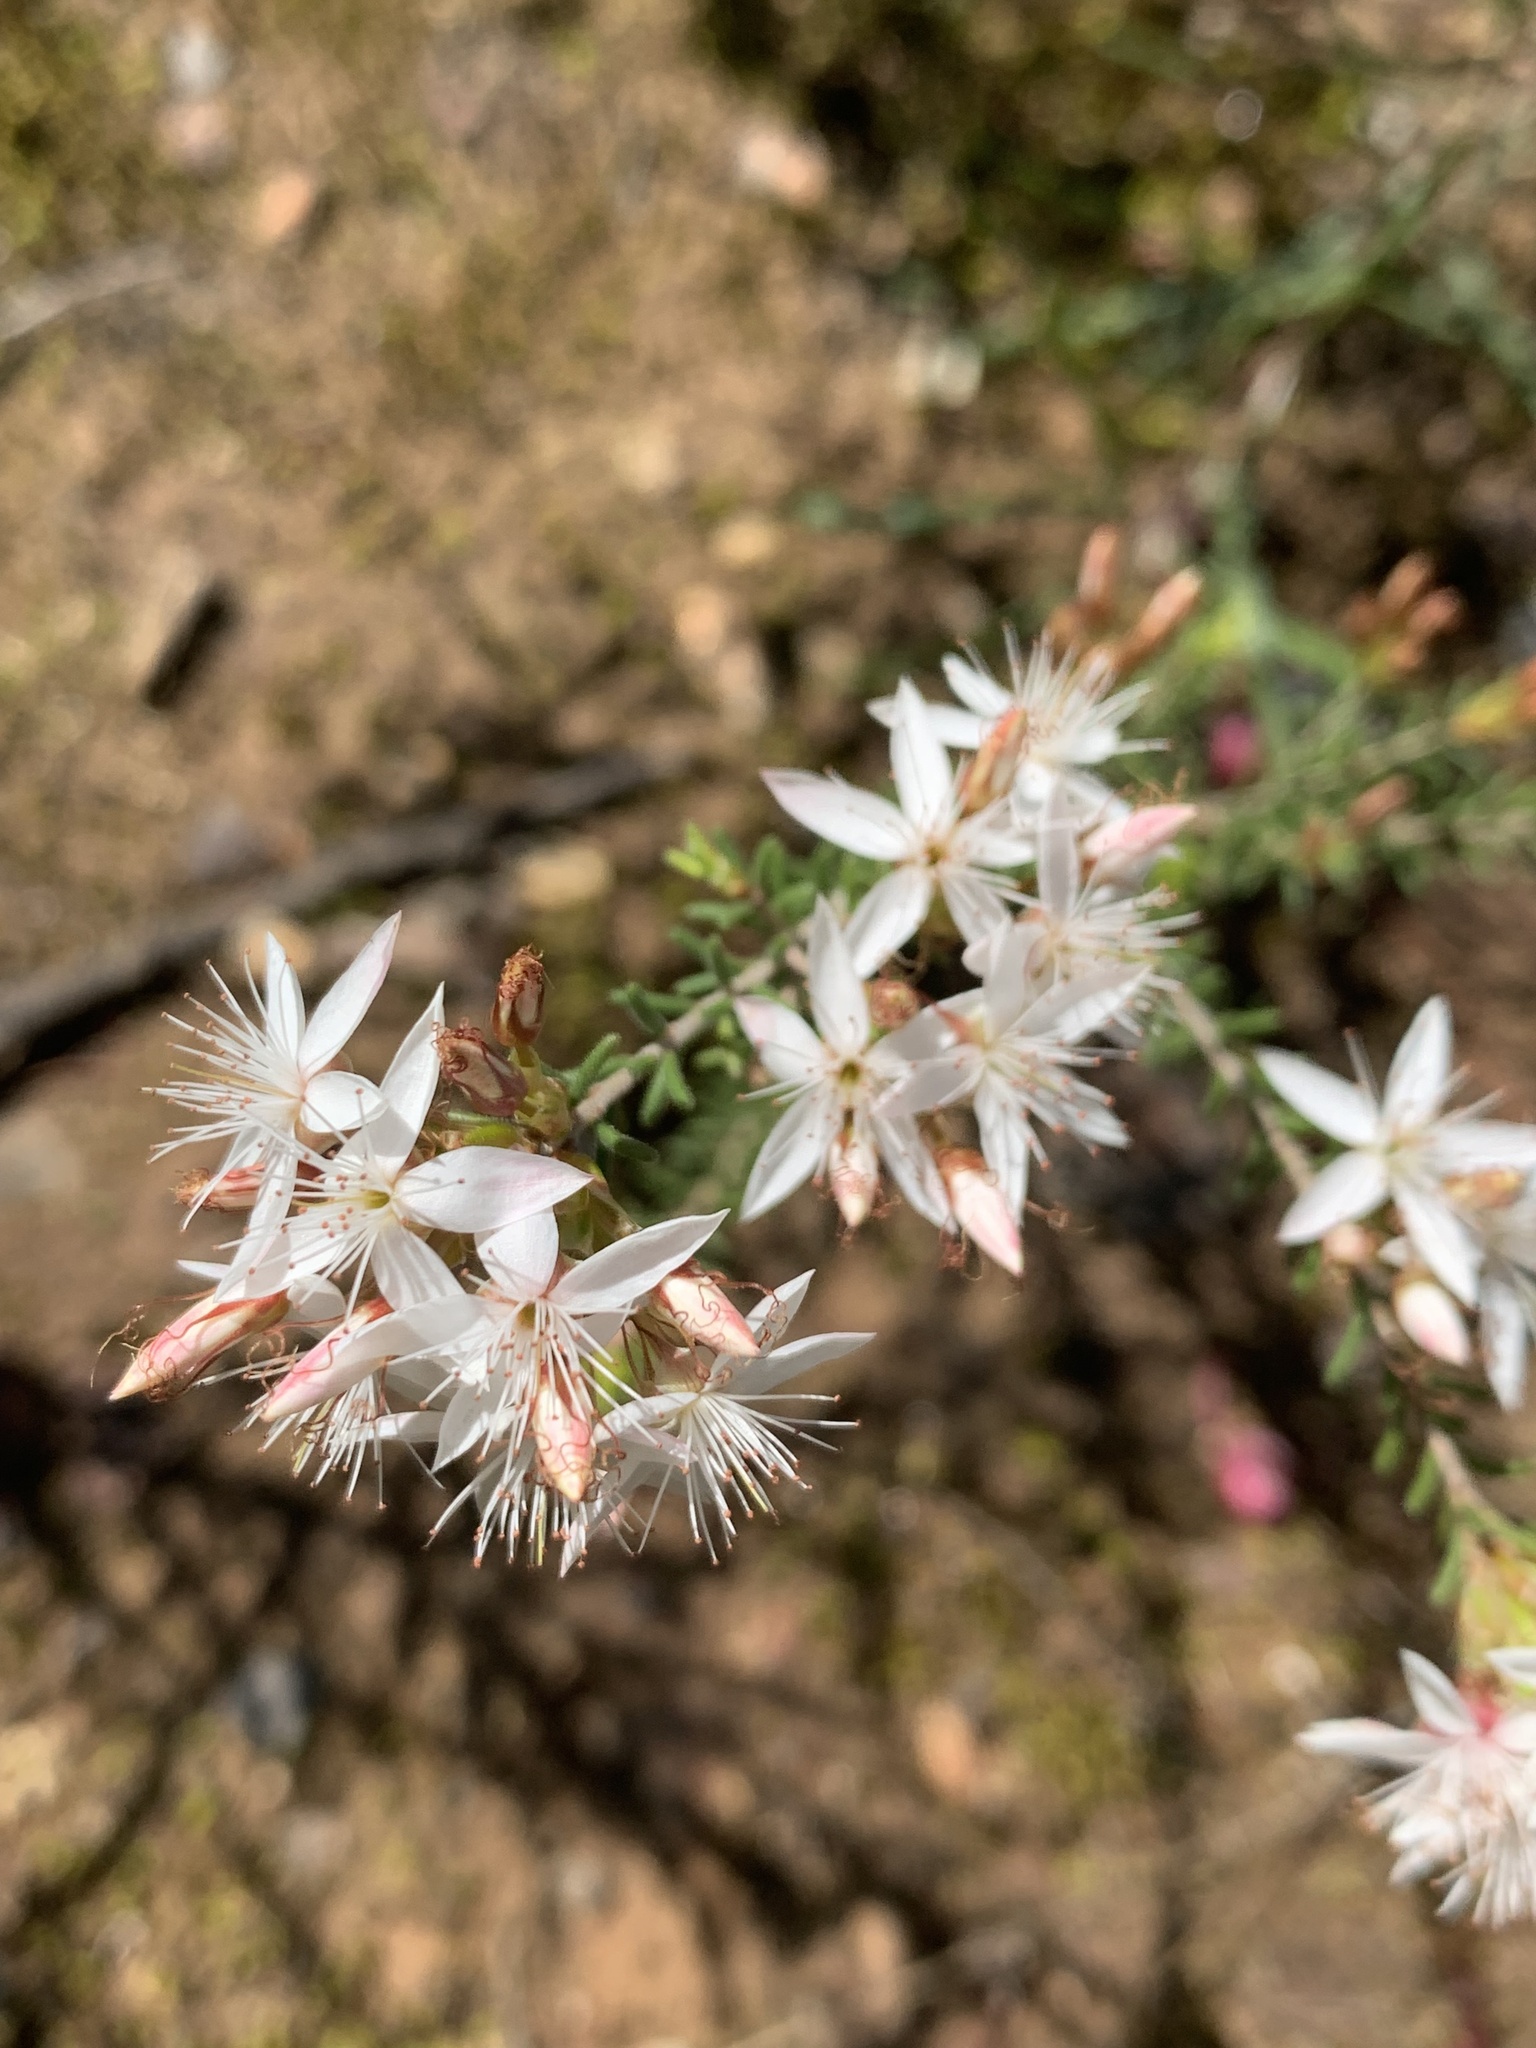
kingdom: Plantae
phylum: Tracheophyta
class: Magnoliopsida
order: Myrtales
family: Myrtaceae
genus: Calytrix
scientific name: Calytrix tetragona
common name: Common fringe myrtle
